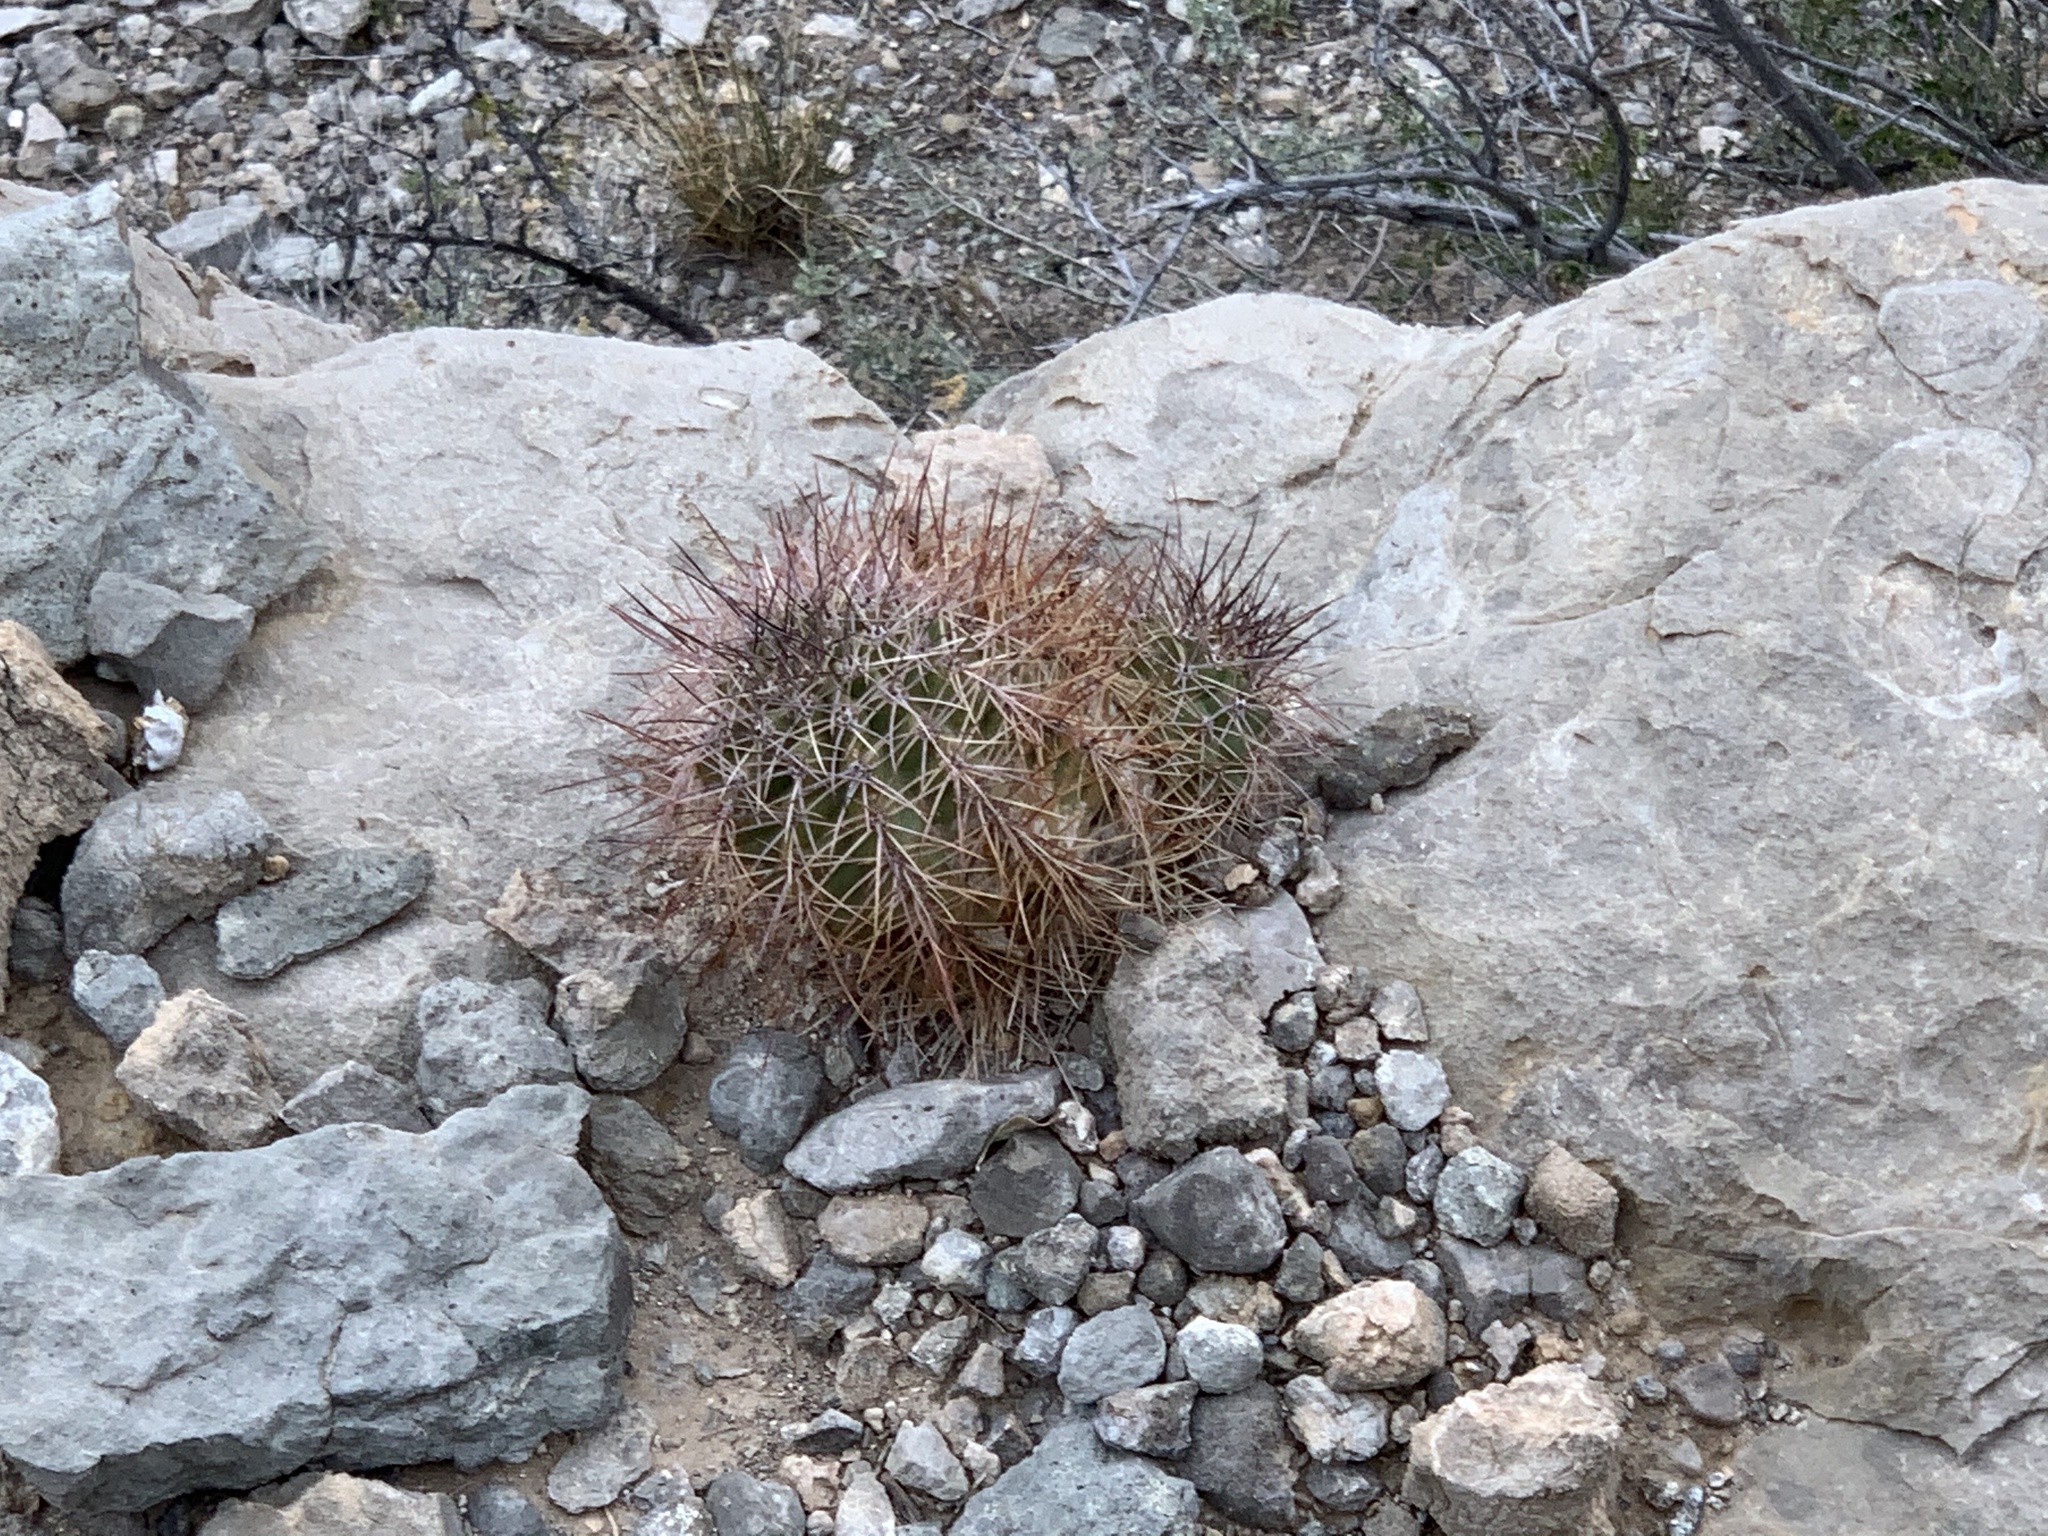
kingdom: Plantae
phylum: Tracheophyta
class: Magnoliopsida
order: Caryophyllales
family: Cactaceae
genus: Echinocereus
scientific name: Echinocereus coccineus
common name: Scarlet hedgehog cactus
